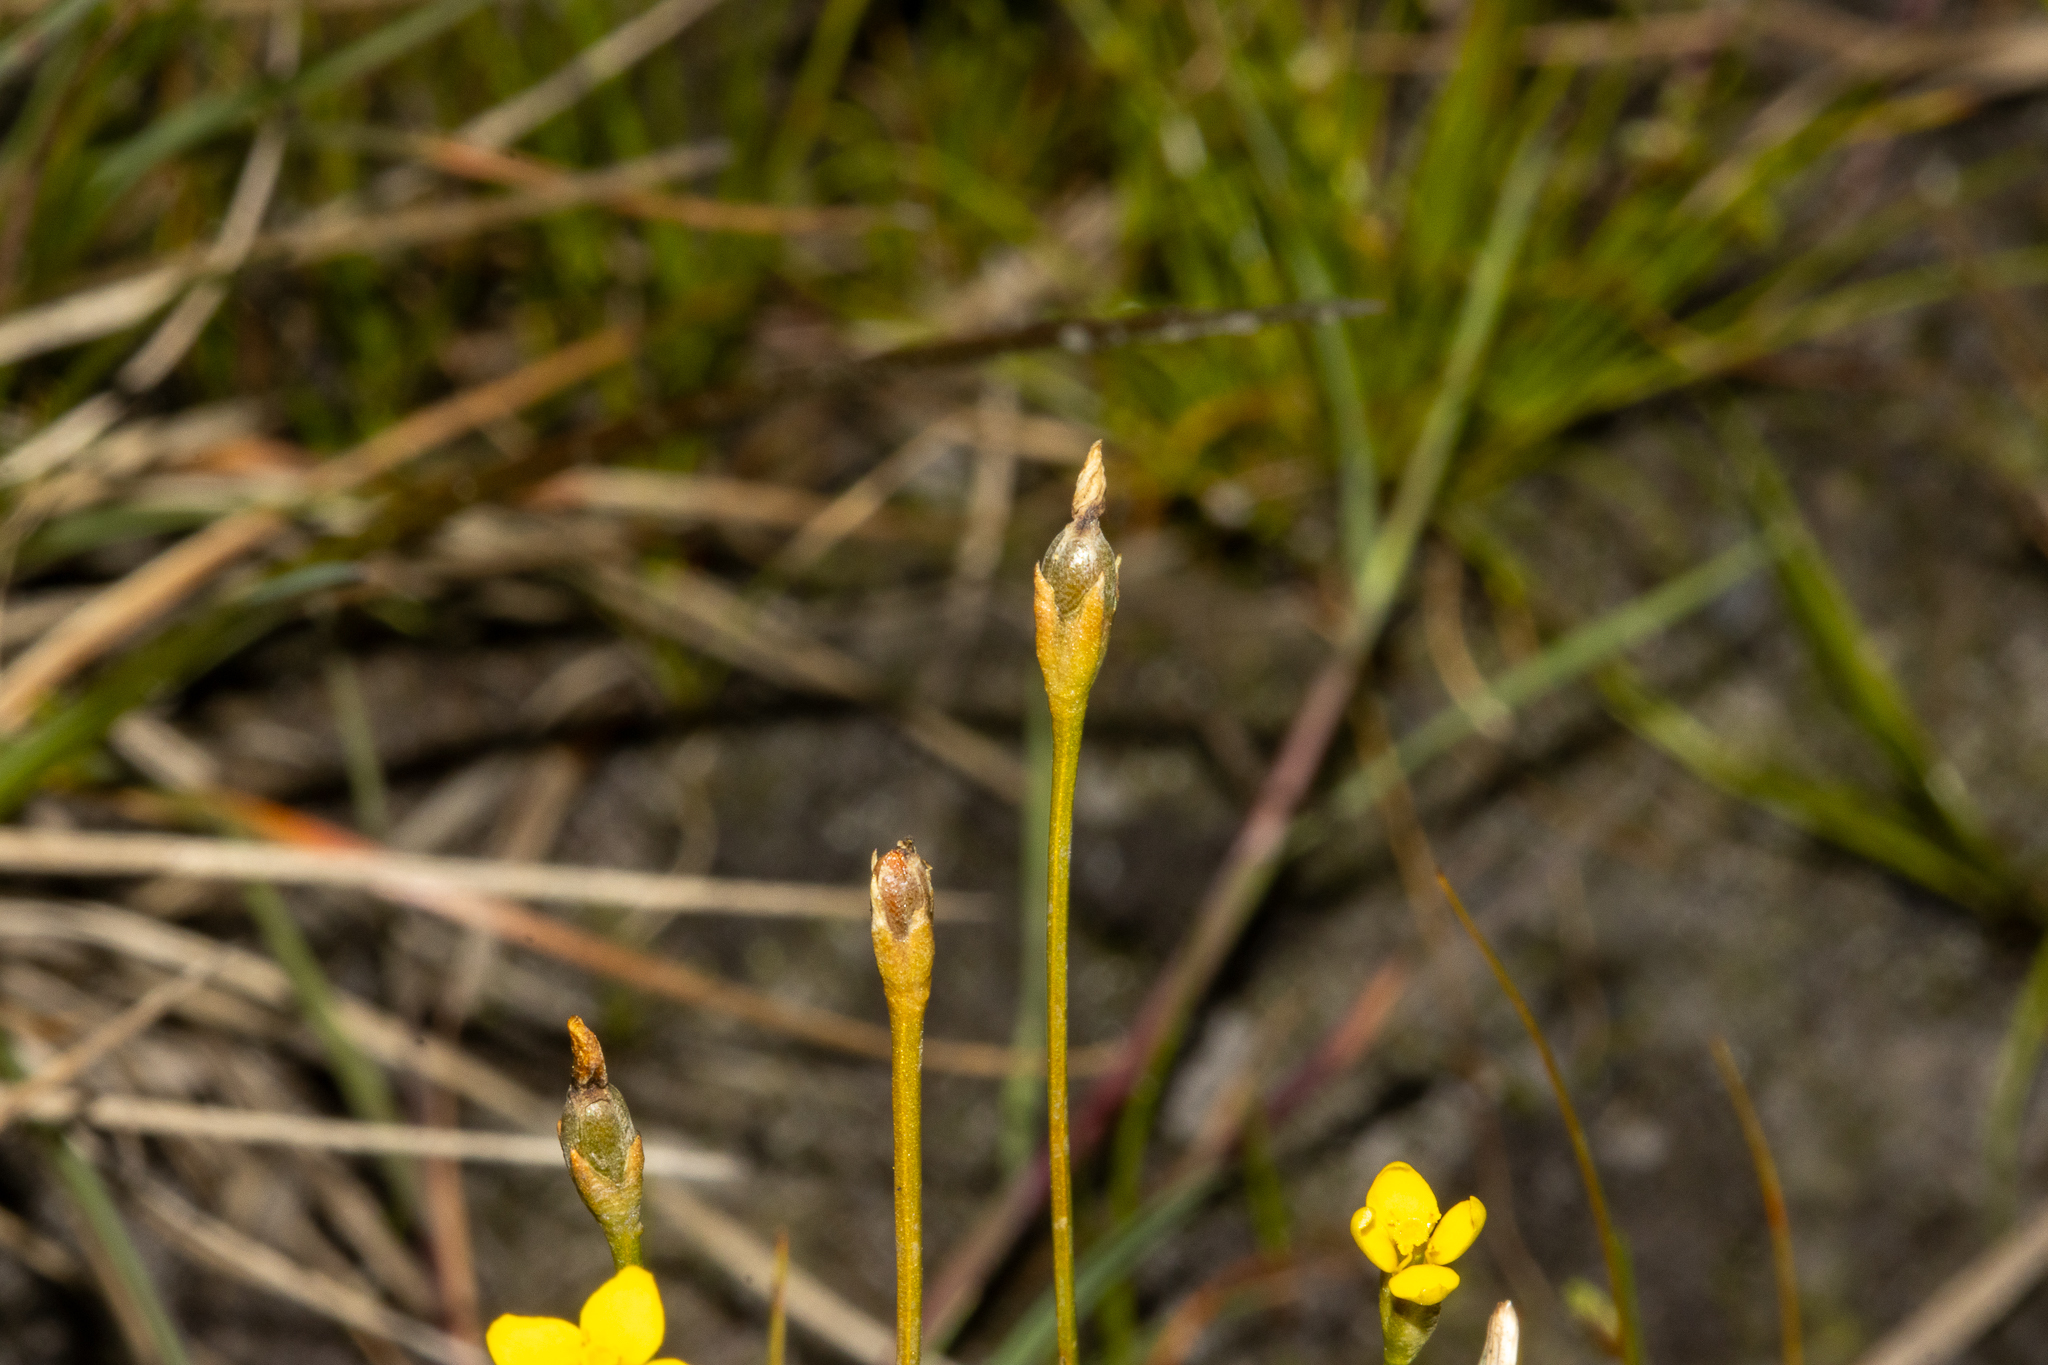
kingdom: Plantae
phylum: Tracheophyta
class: Magnoliopsida
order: Gentianales
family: Gentianaceae
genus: Cicendia
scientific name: Cicendia filiformis
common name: Yellow centaury
